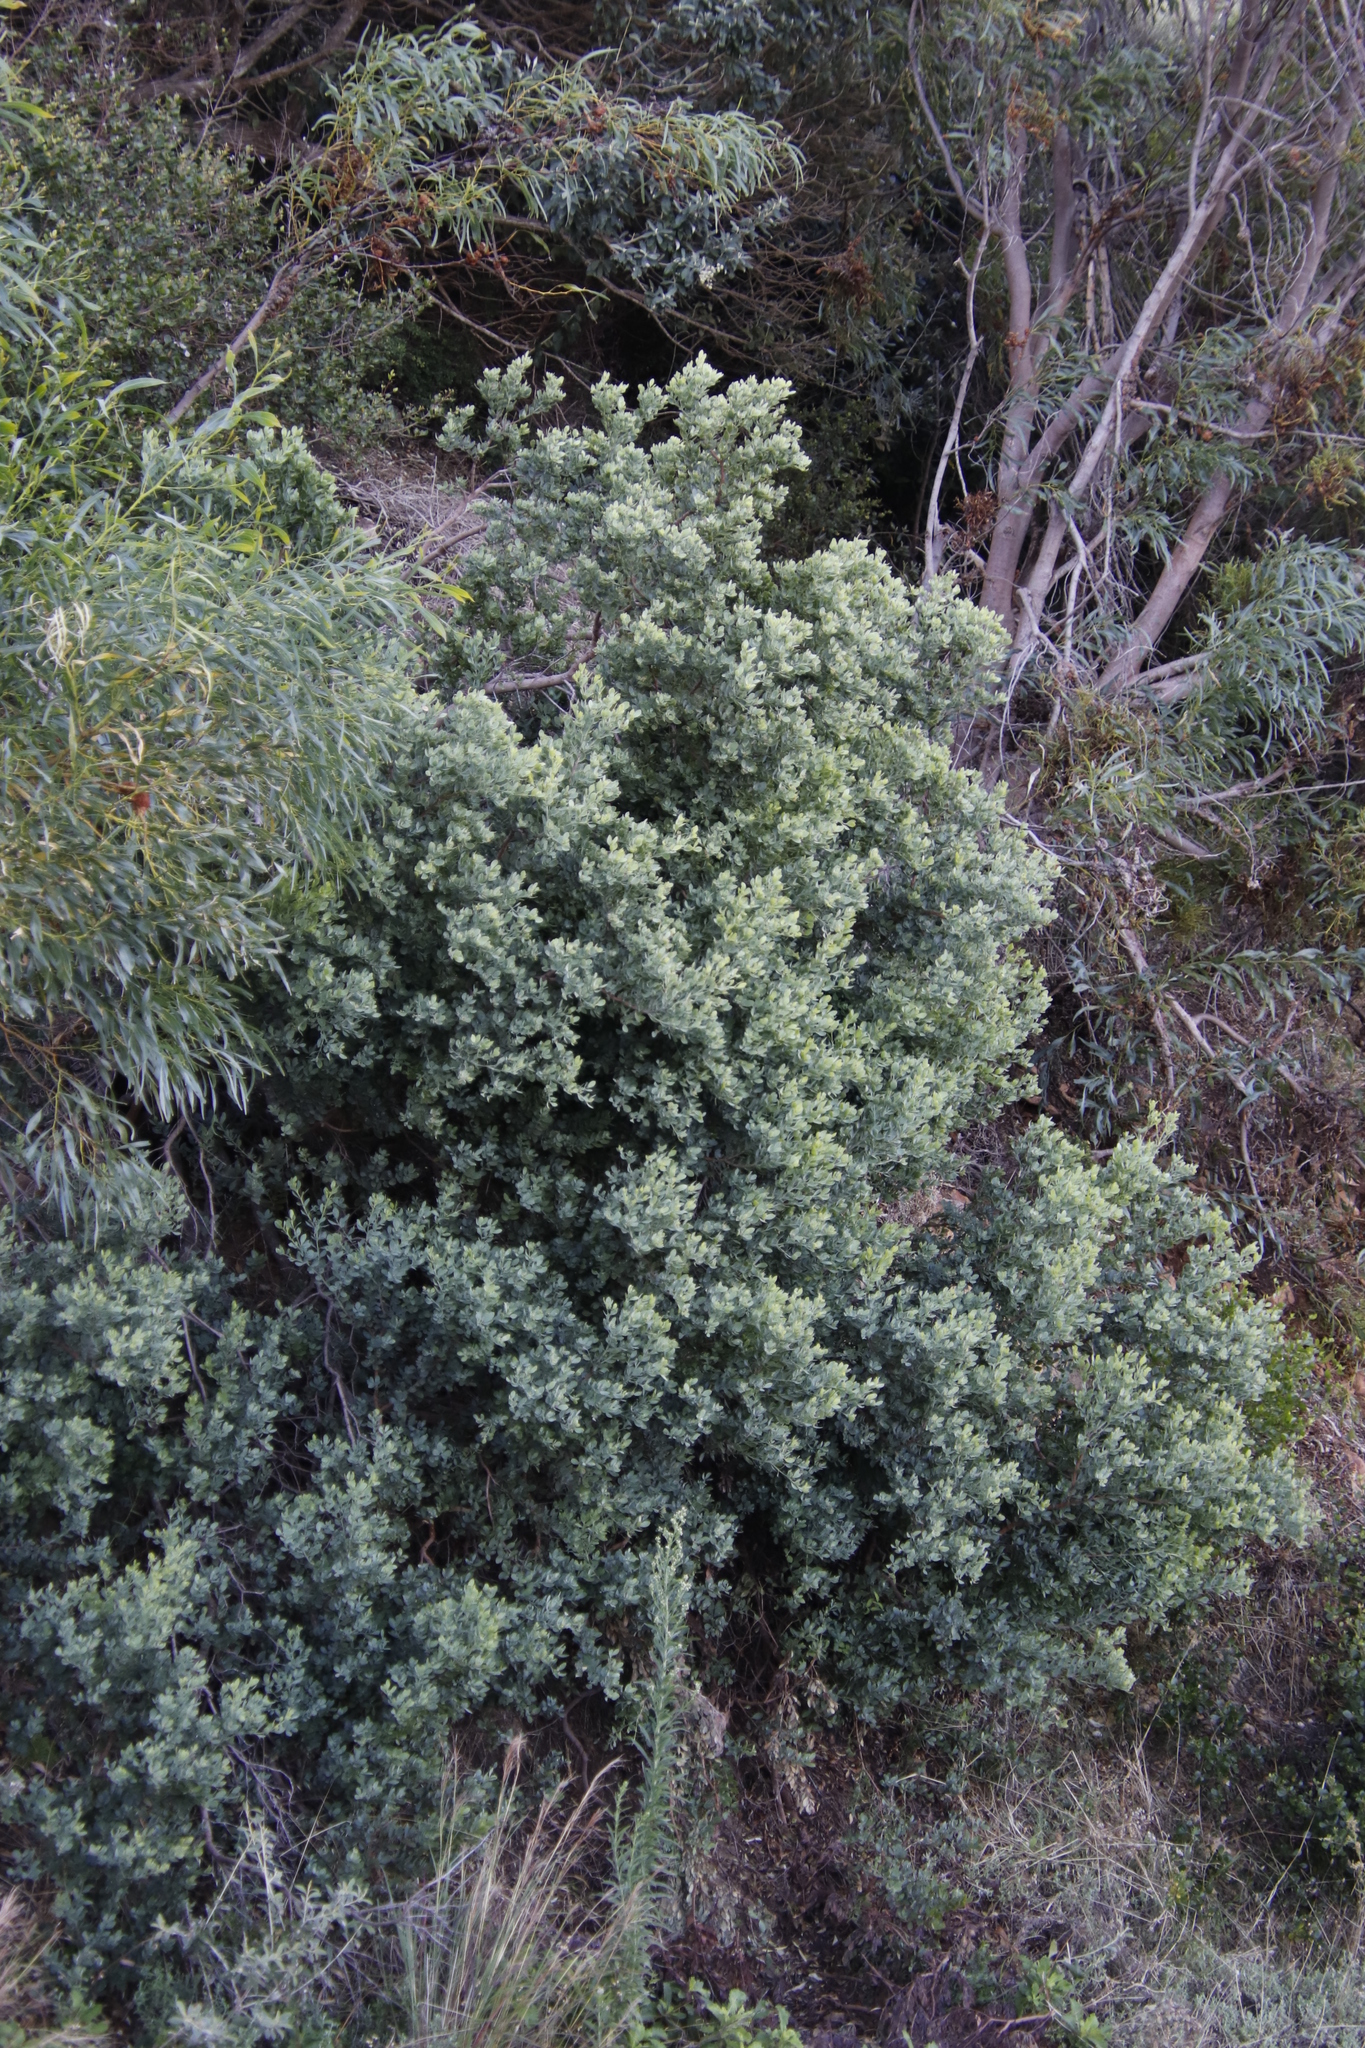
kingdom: Plantae
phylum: Tracheophyta
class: Magnoliopsida
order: Santalales
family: Santalaceae
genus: Osyris
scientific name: Osyris compressa
